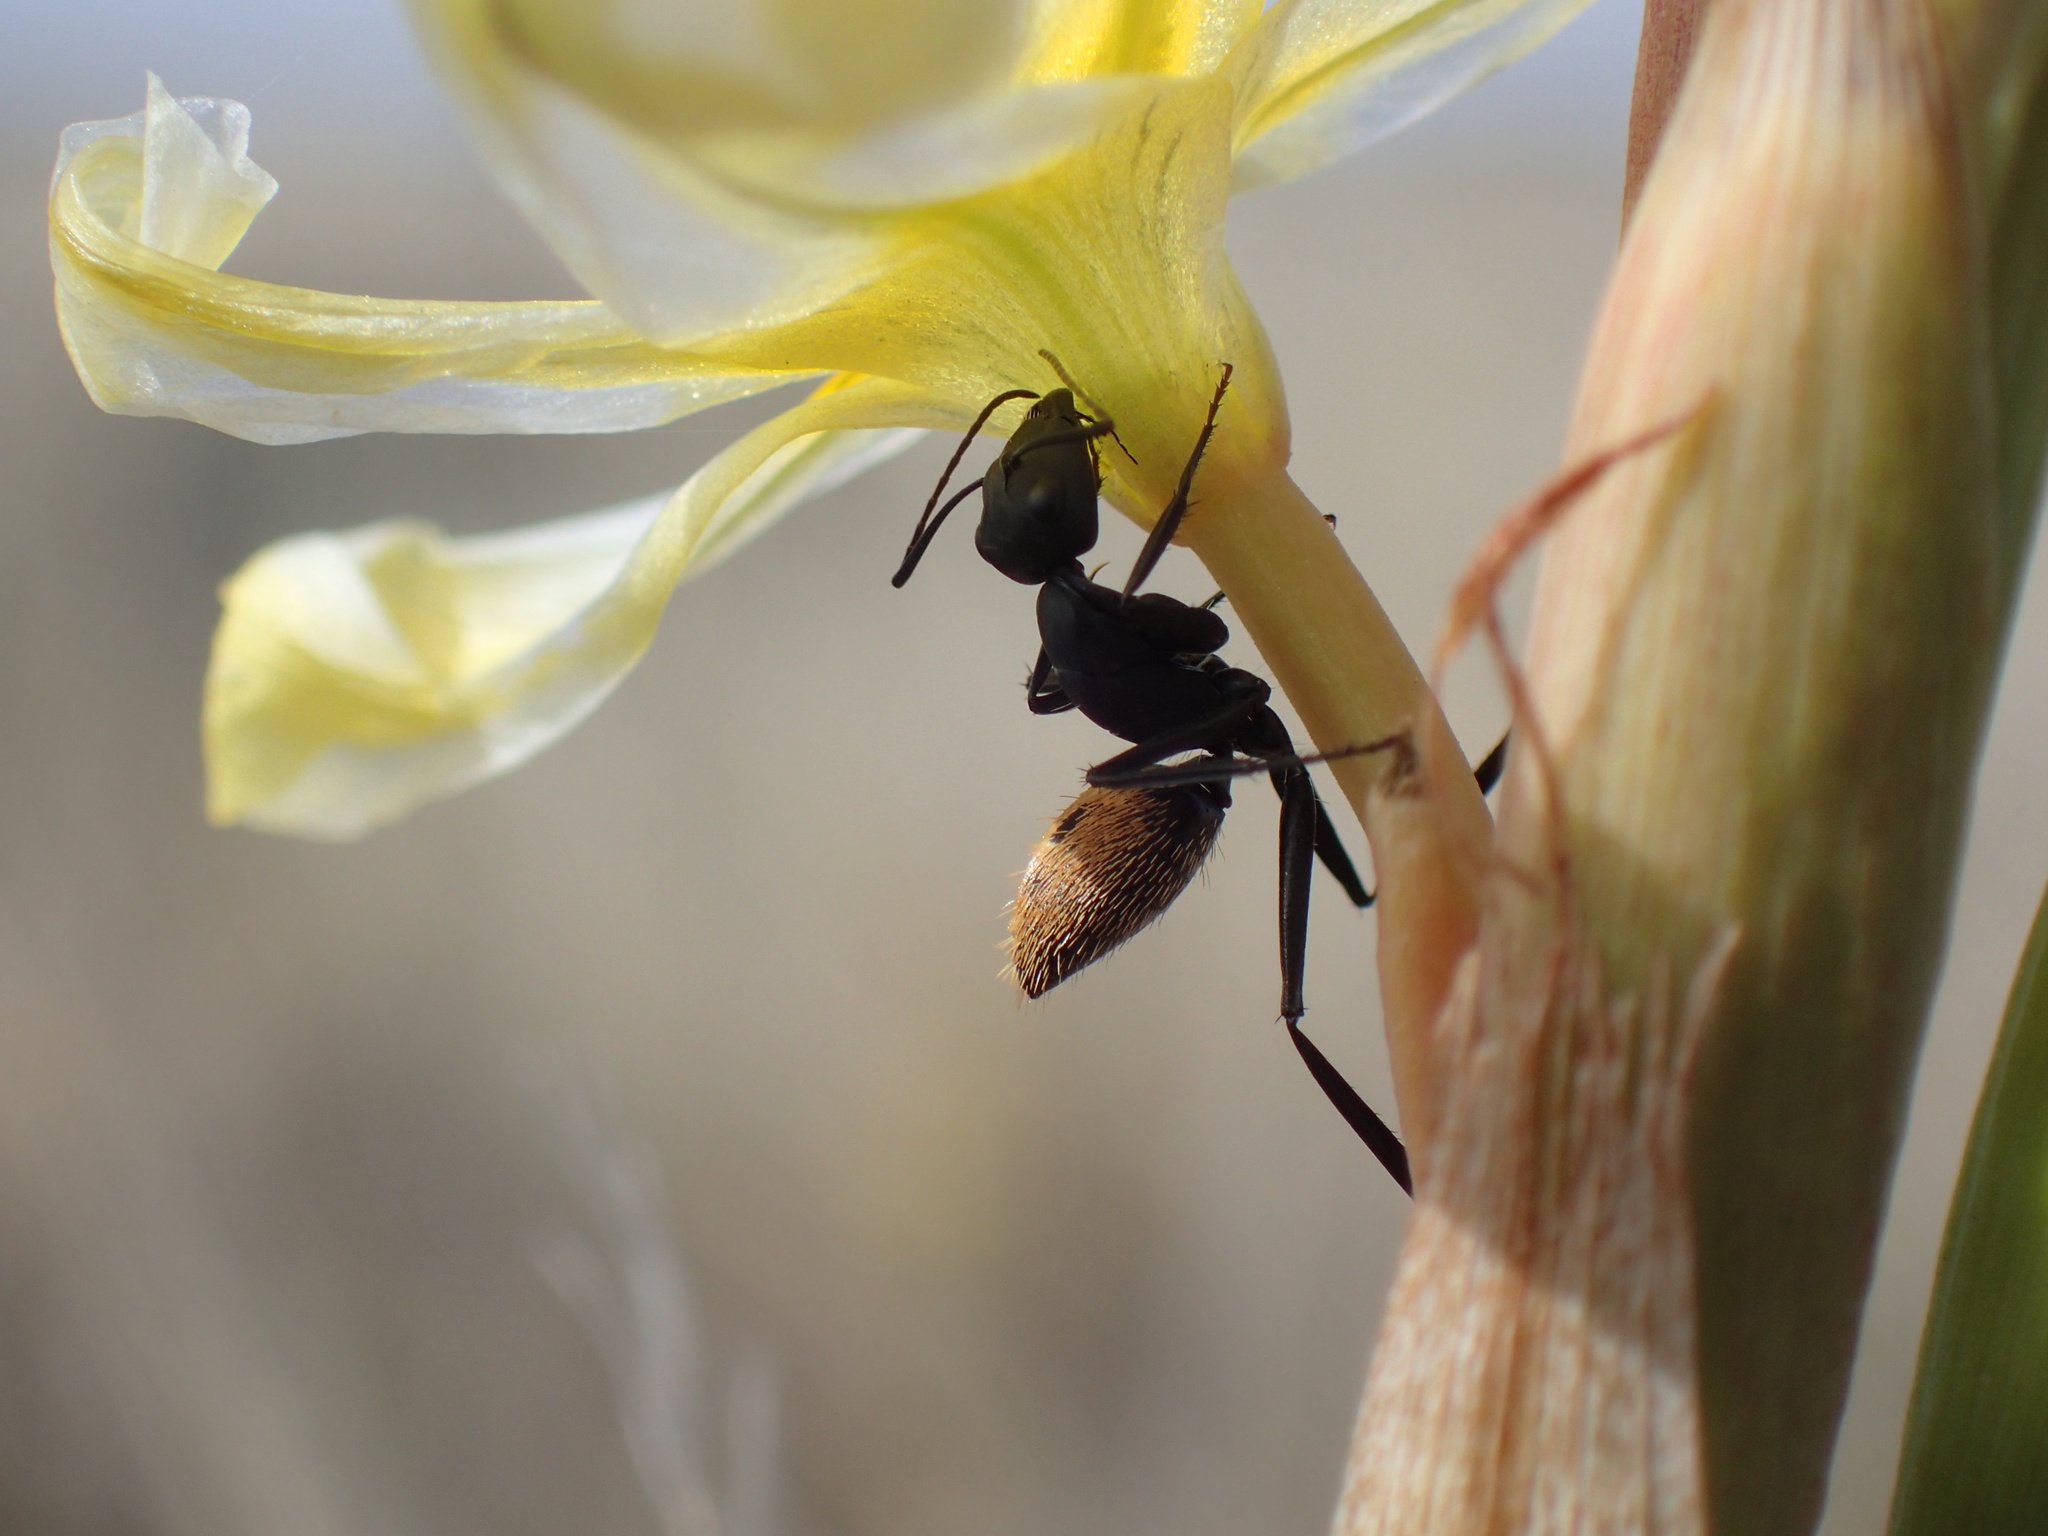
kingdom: Animalia
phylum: Arthropoda
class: Insecta
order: Hymenoptera
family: Formicidae
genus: Camponotus
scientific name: Camponotus fulvopilosus
